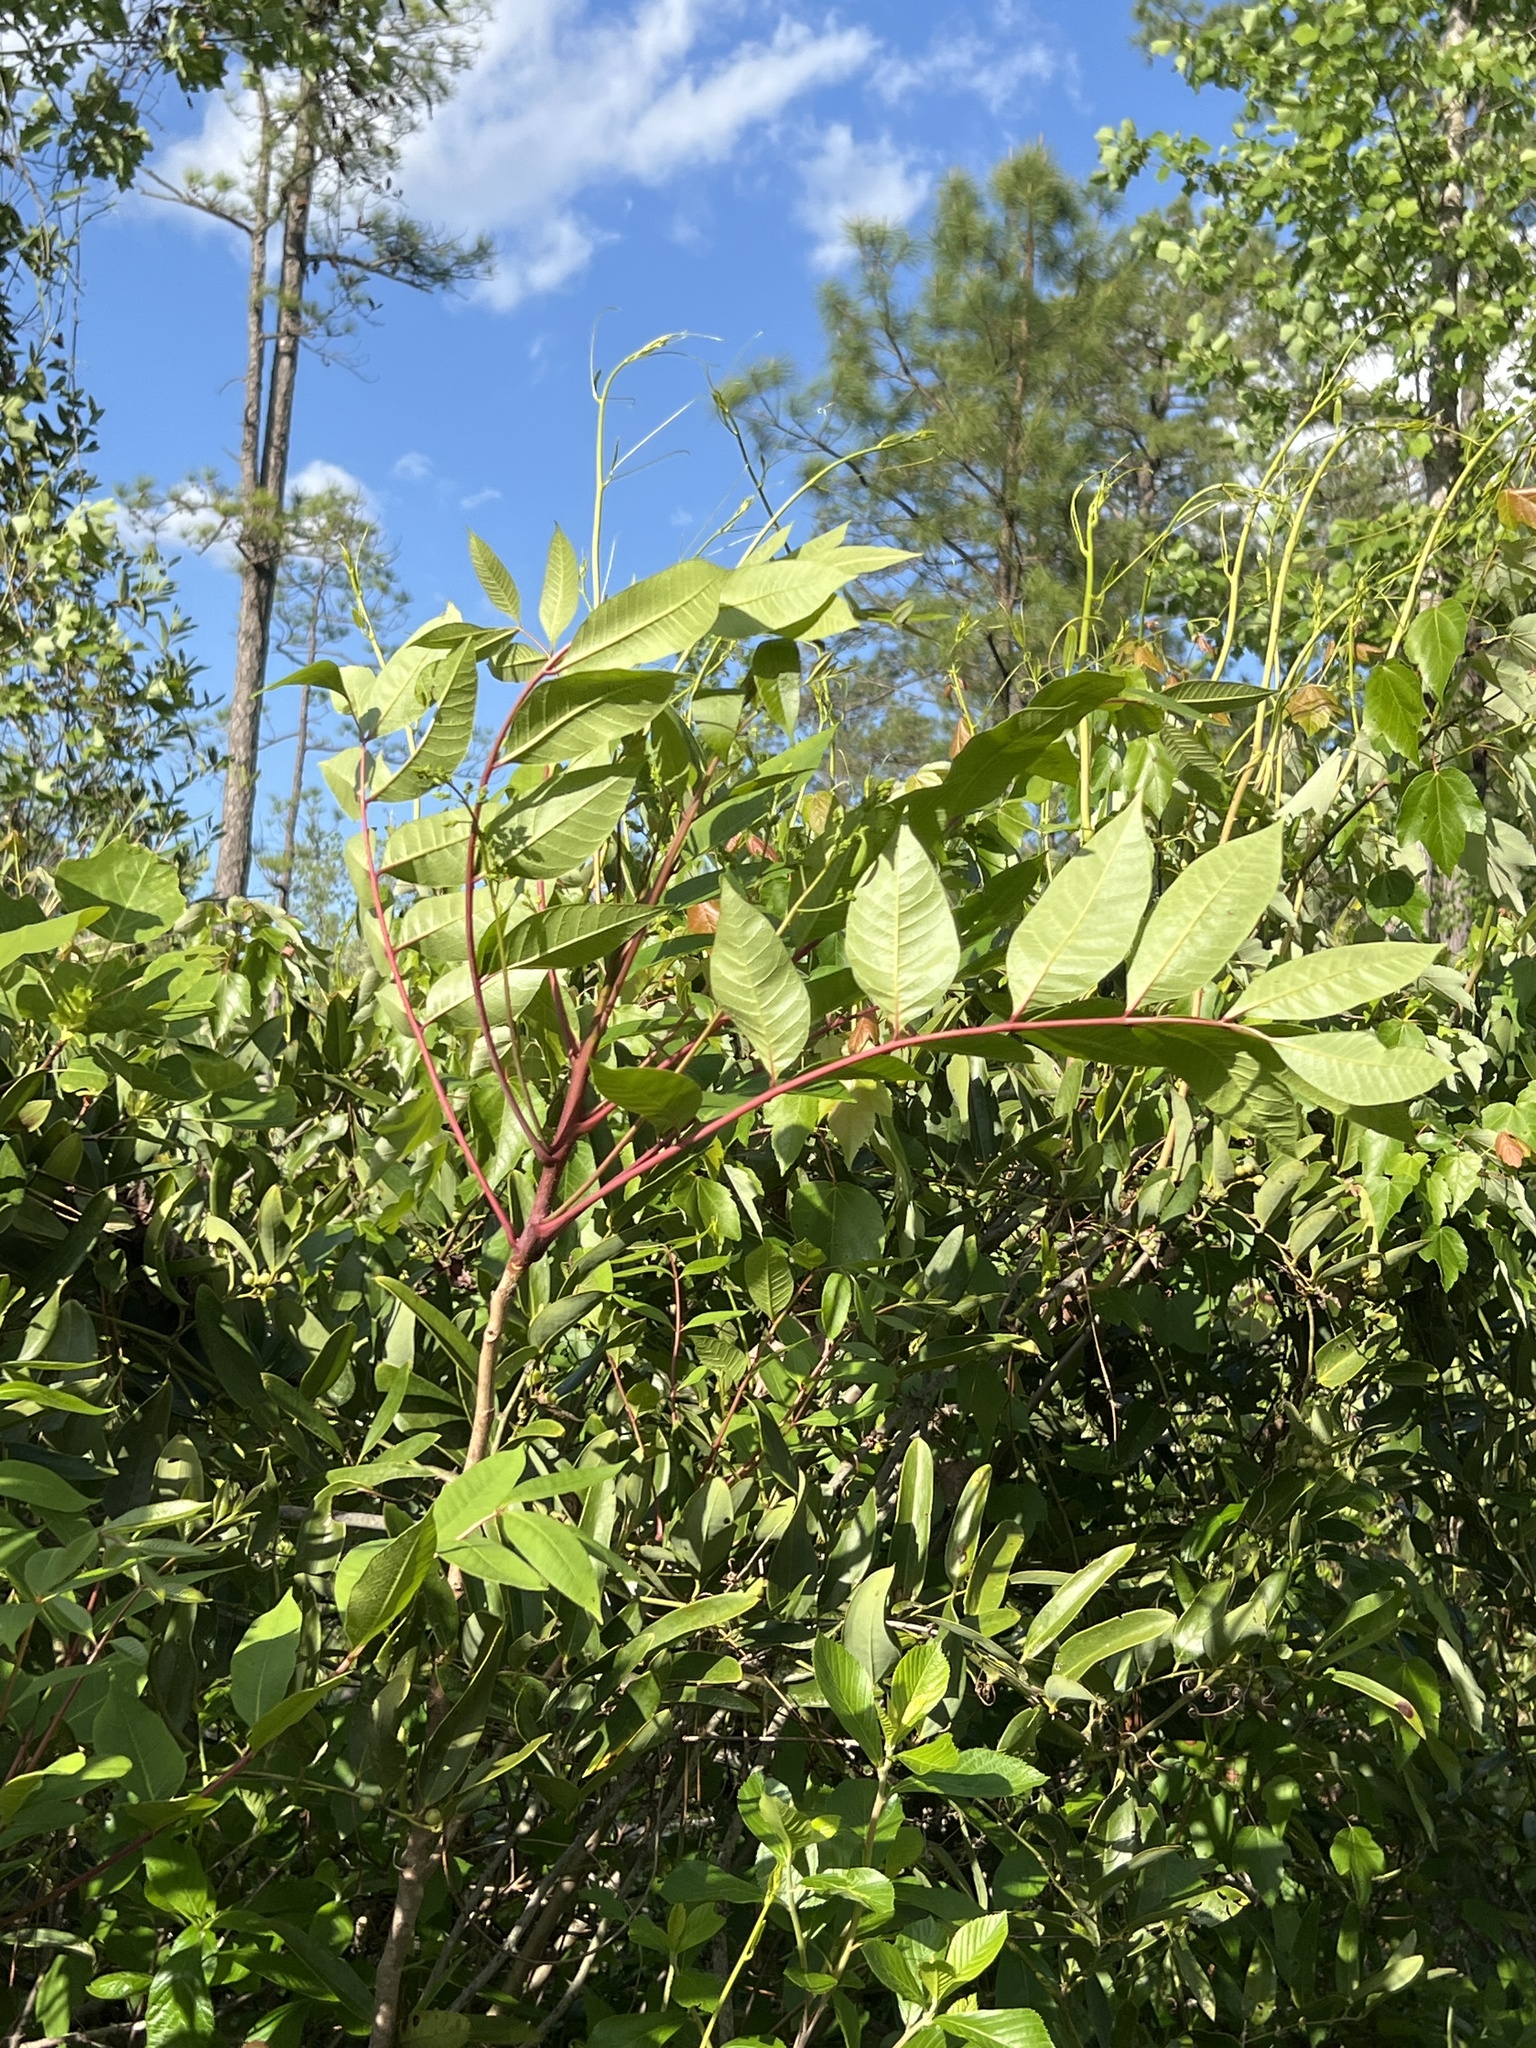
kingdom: Plantae
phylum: Tracheophyta
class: Magnoliopsida
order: Sapindales
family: Anacardiaceae
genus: Toxicodendron
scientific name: Toxicodendron vernix
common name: Poison sumac
